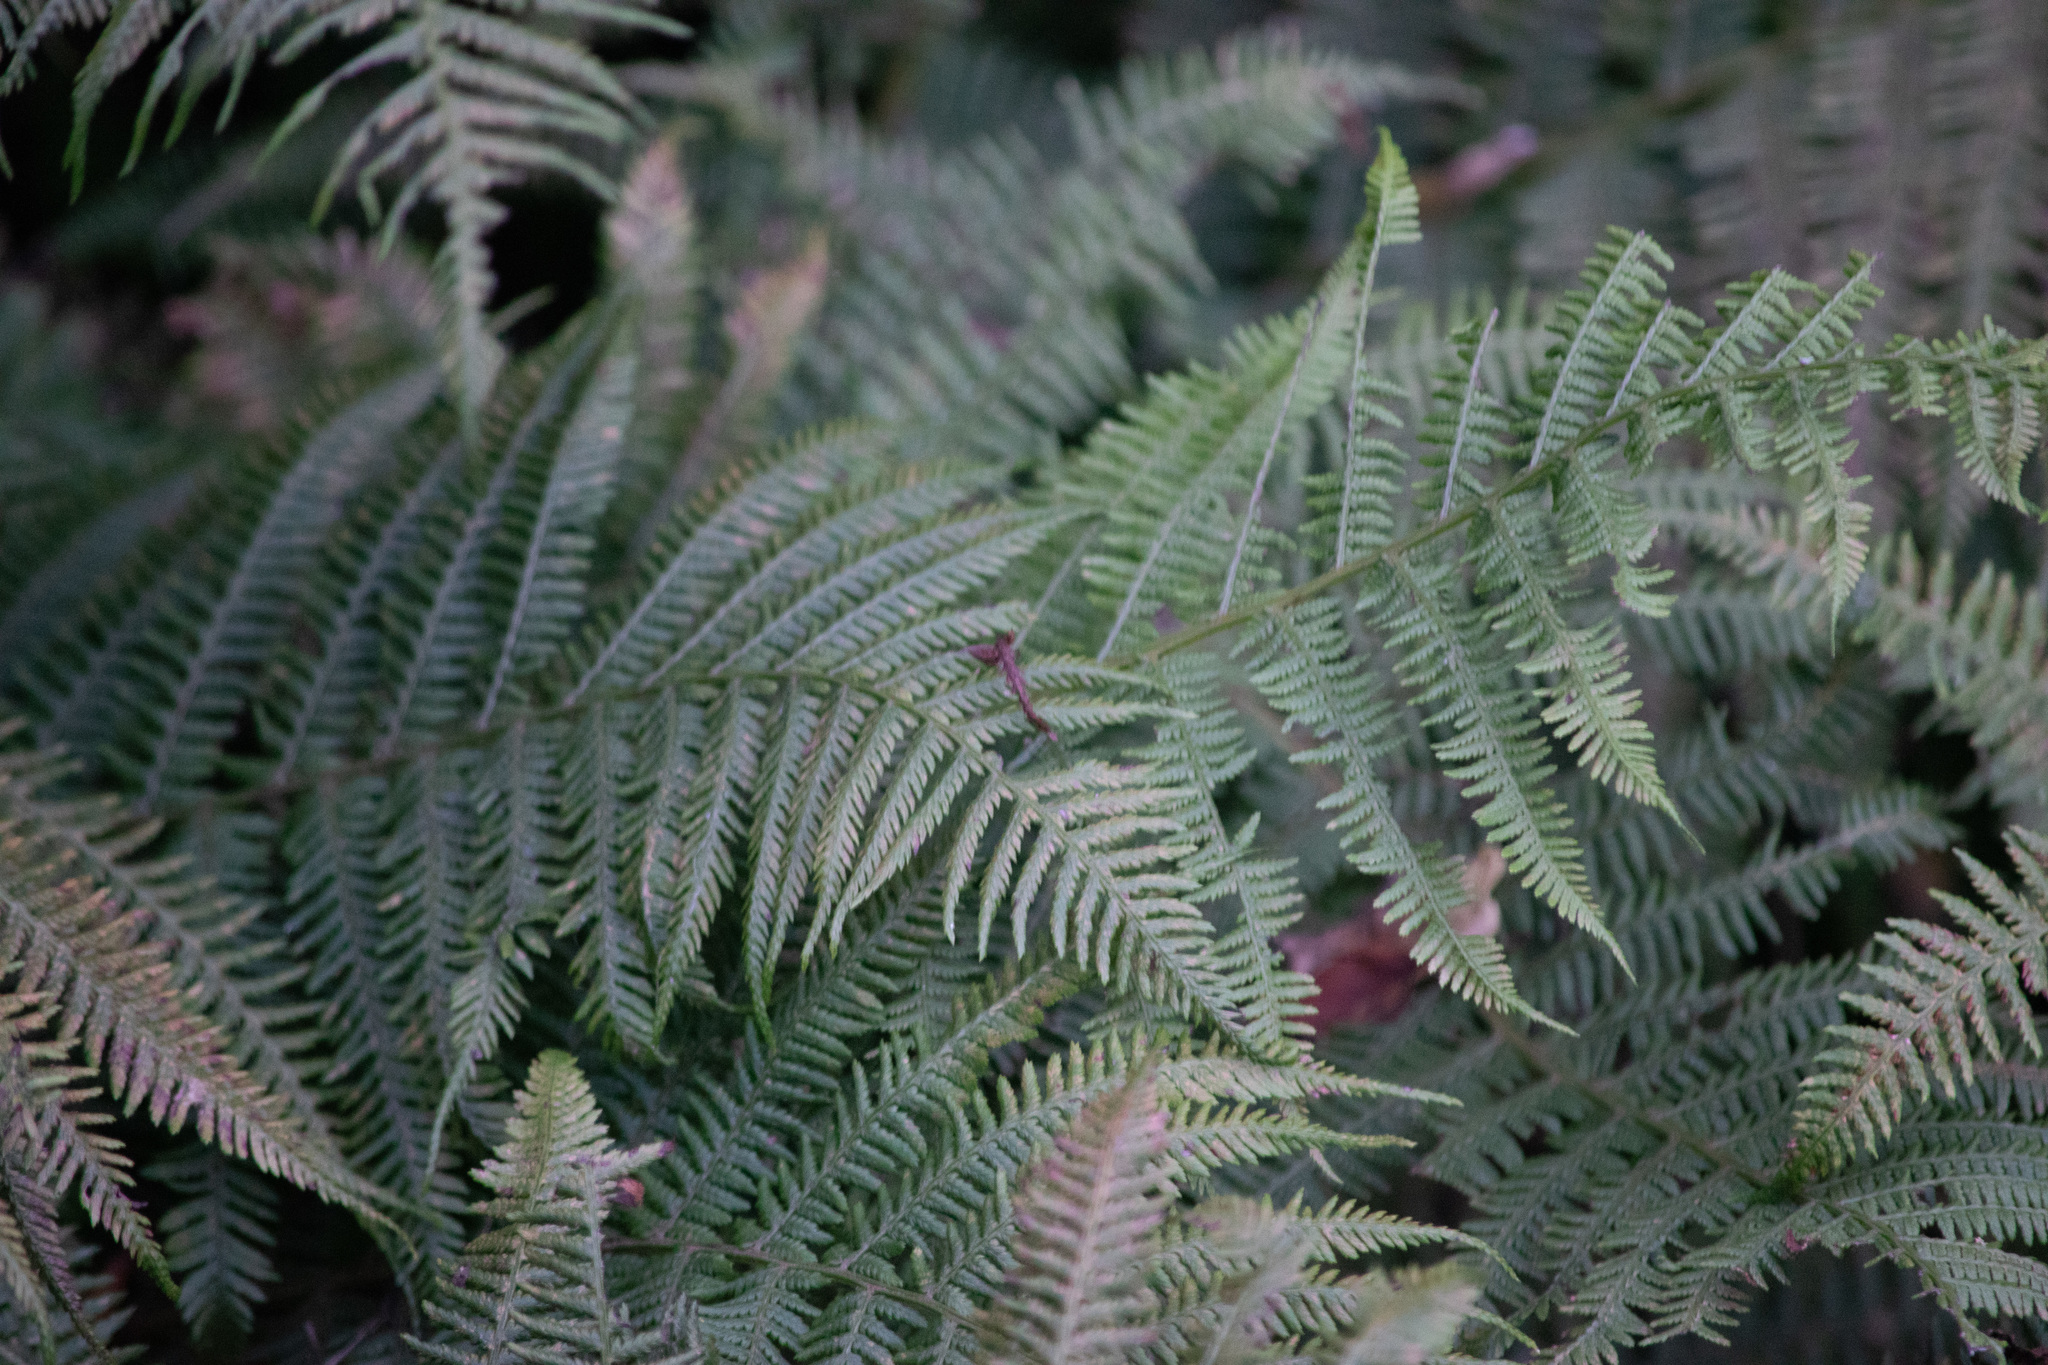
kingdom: Plantae
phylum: Tracheophyta
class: Polypodiopsida
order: Polypodiales
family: Athyriaceae
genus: Athyrium
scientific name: Athyrium filix-femina
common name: Lady fern
